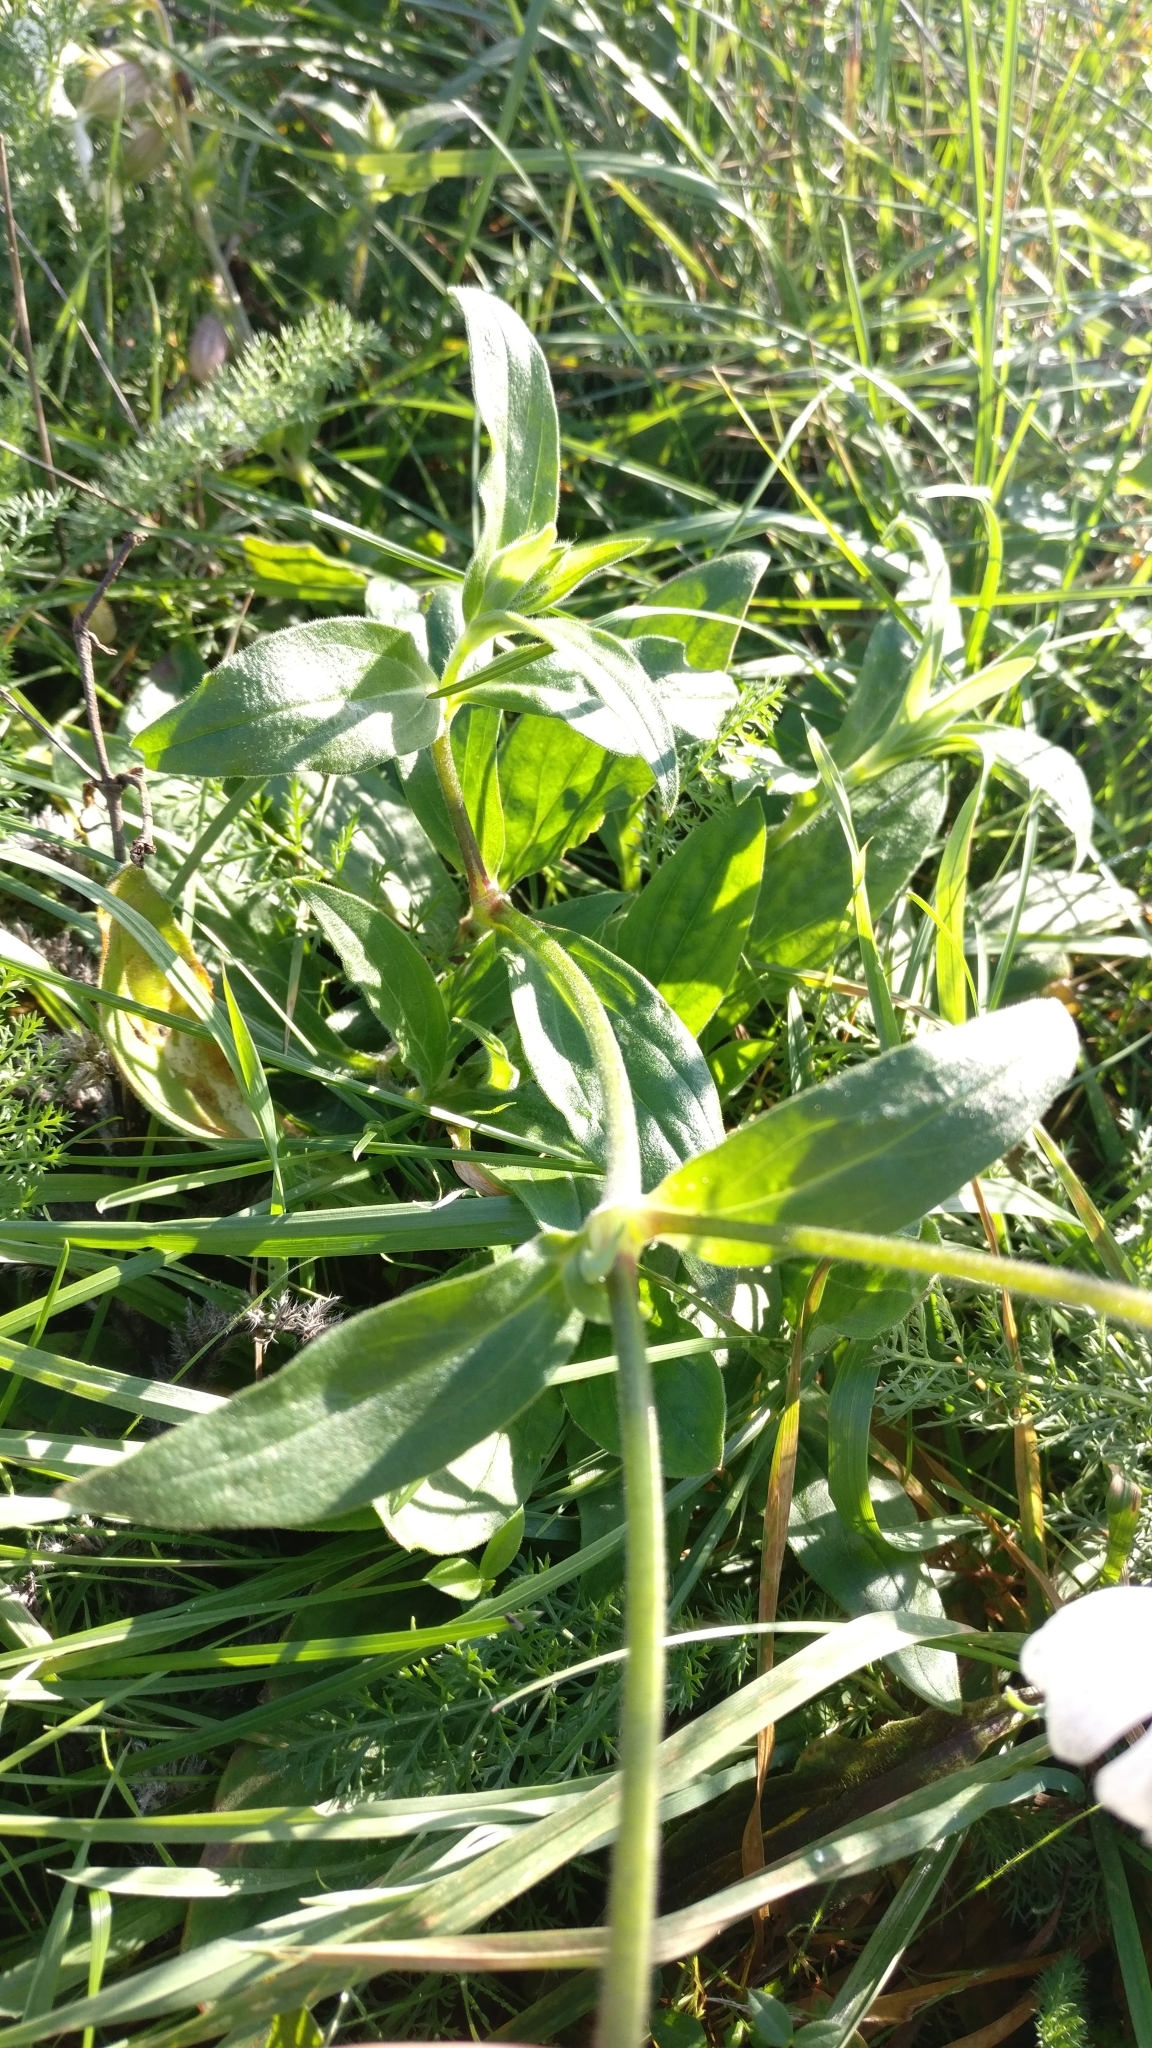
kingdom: Plantae
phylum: Tracheophyta
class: Magnoliopsida
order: Caryophyllales
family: Caryophyllaceae
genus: Silene
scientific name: Silene latifolia
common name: White campion
